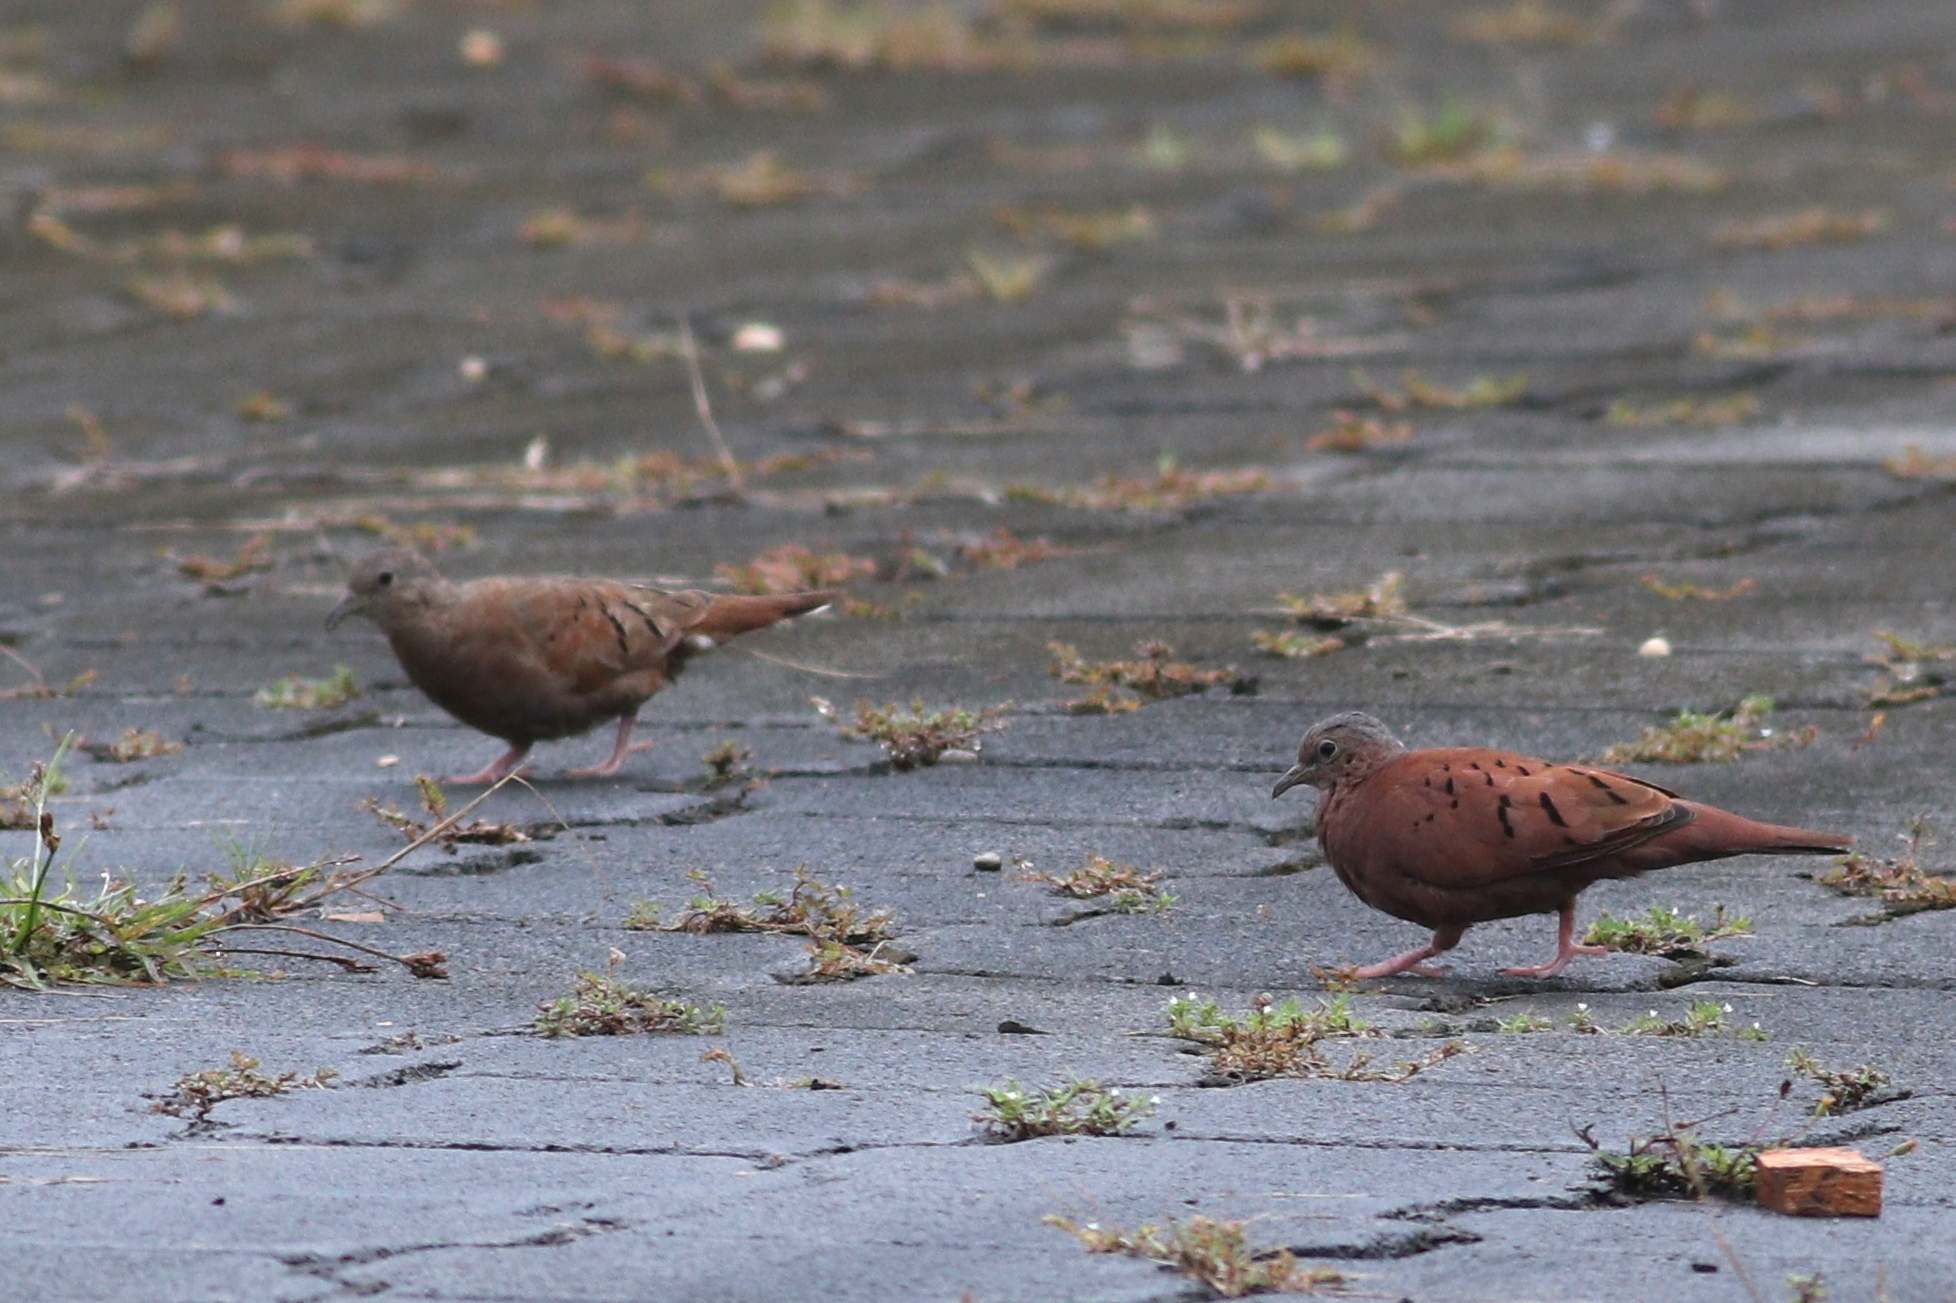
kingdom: Animalia
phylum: Chordata
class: Aves
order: Columbiformes
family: Columbidae
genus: Columbina
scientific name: Columbina talpacoti
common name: Ruddy ground dove
